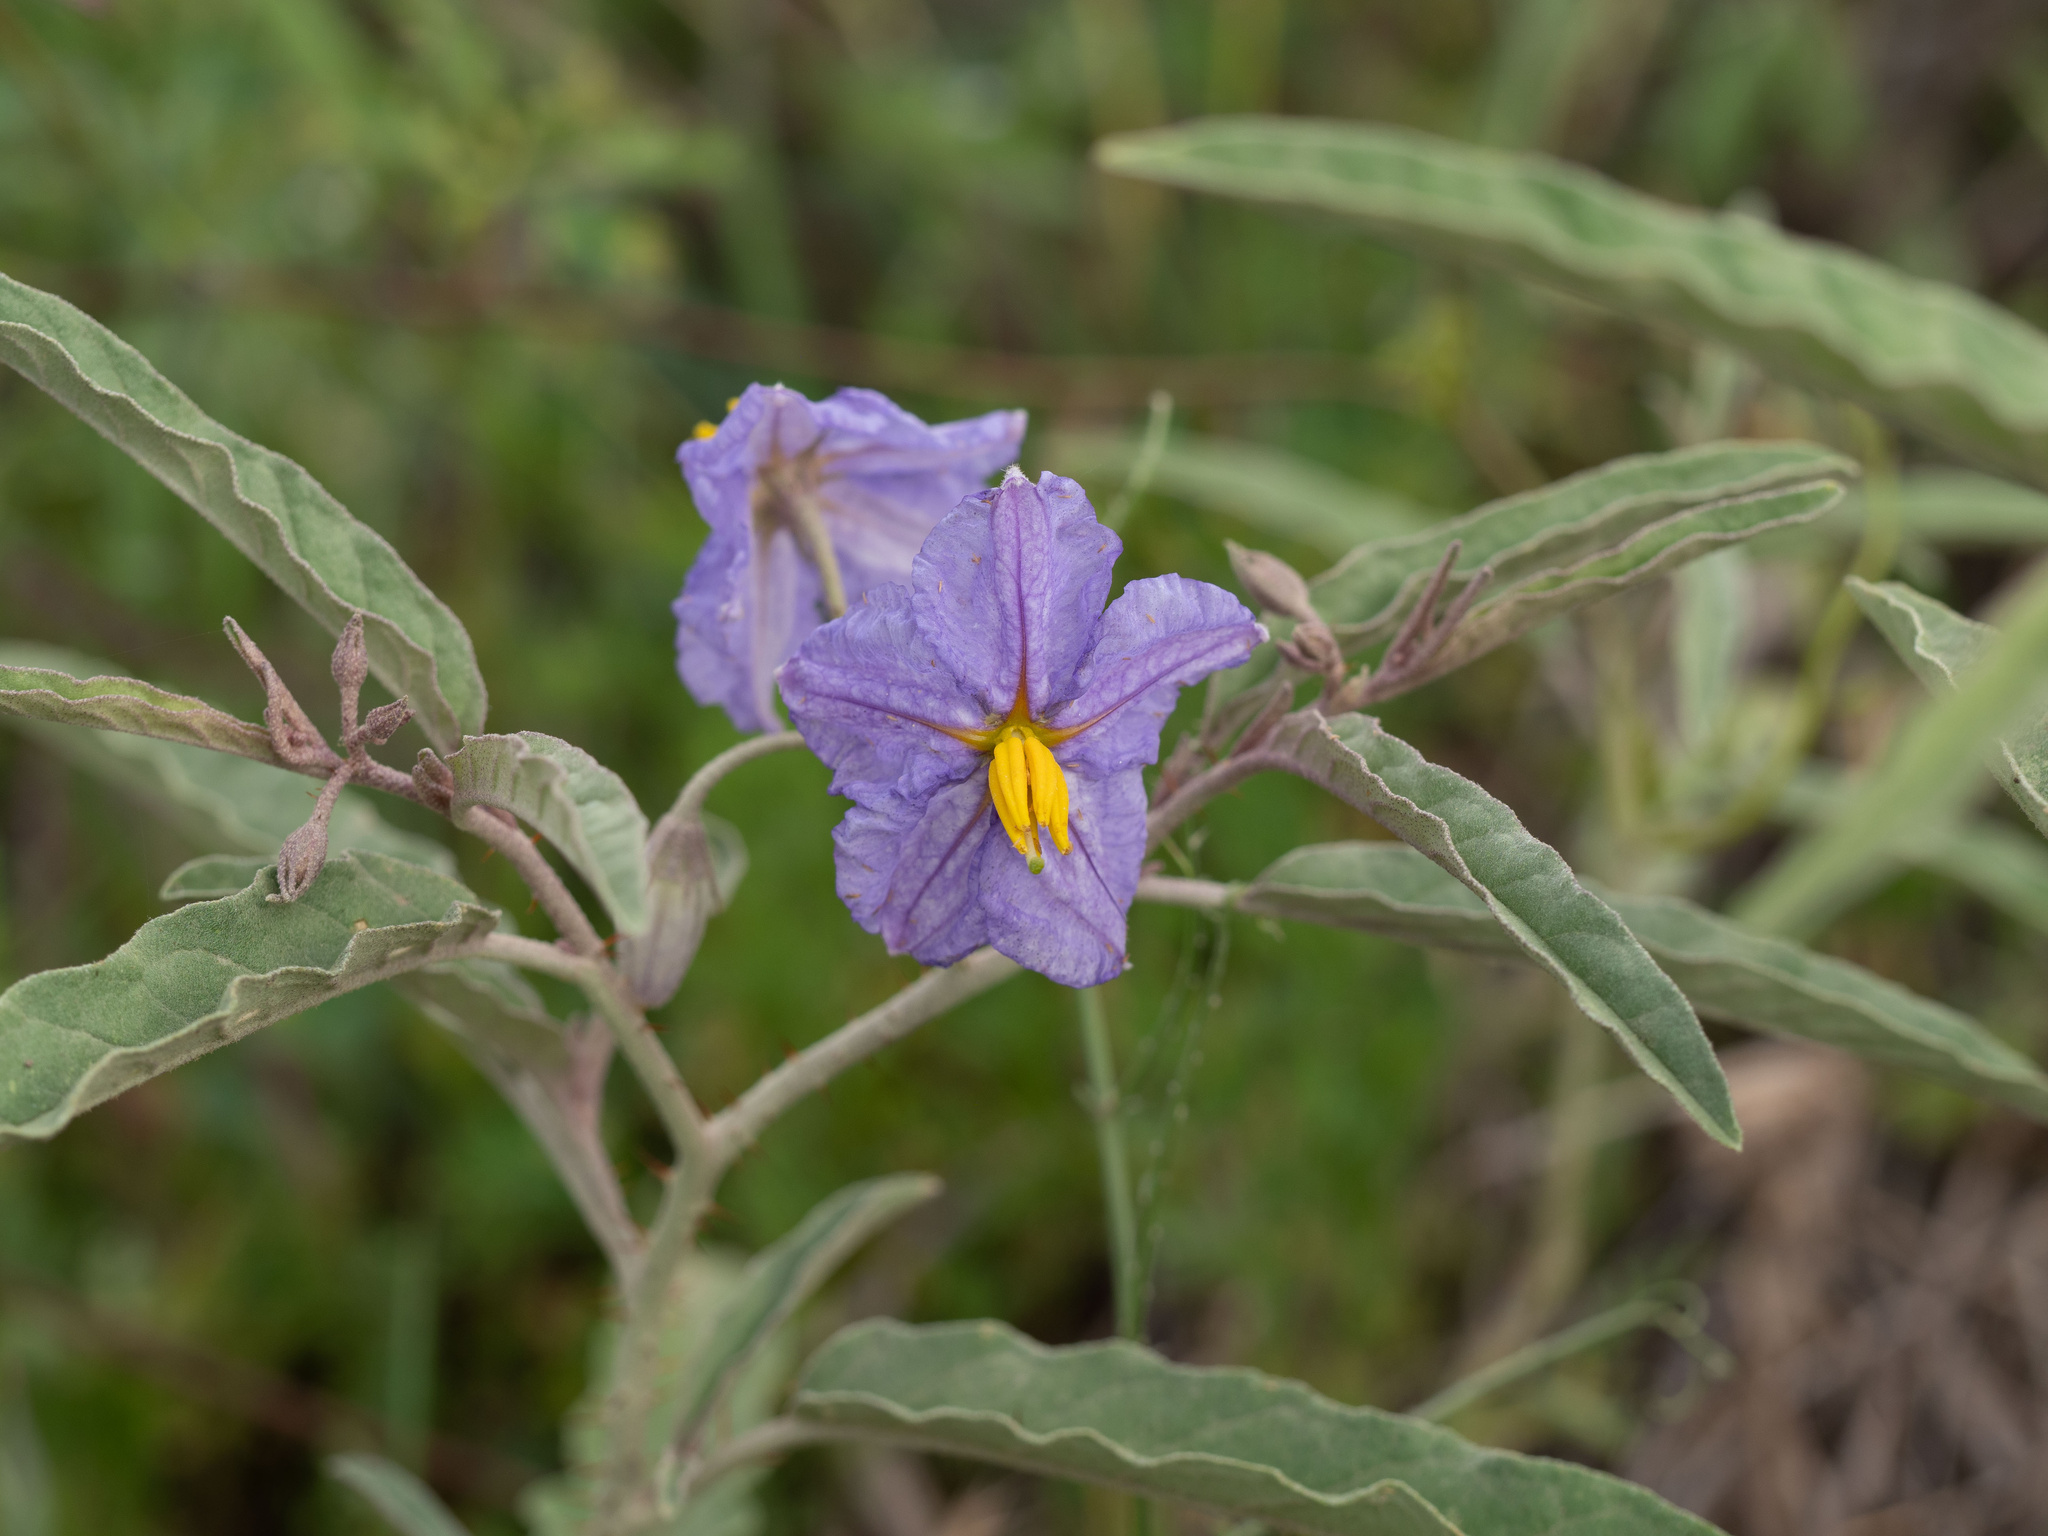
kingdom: Plantae
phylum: Tracheophyta
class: Magnoliopsida
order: Solanales
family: Solanaceae
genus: Solanum
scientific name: Solanum elaeagnifolium
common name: Silverleaf nightshade
